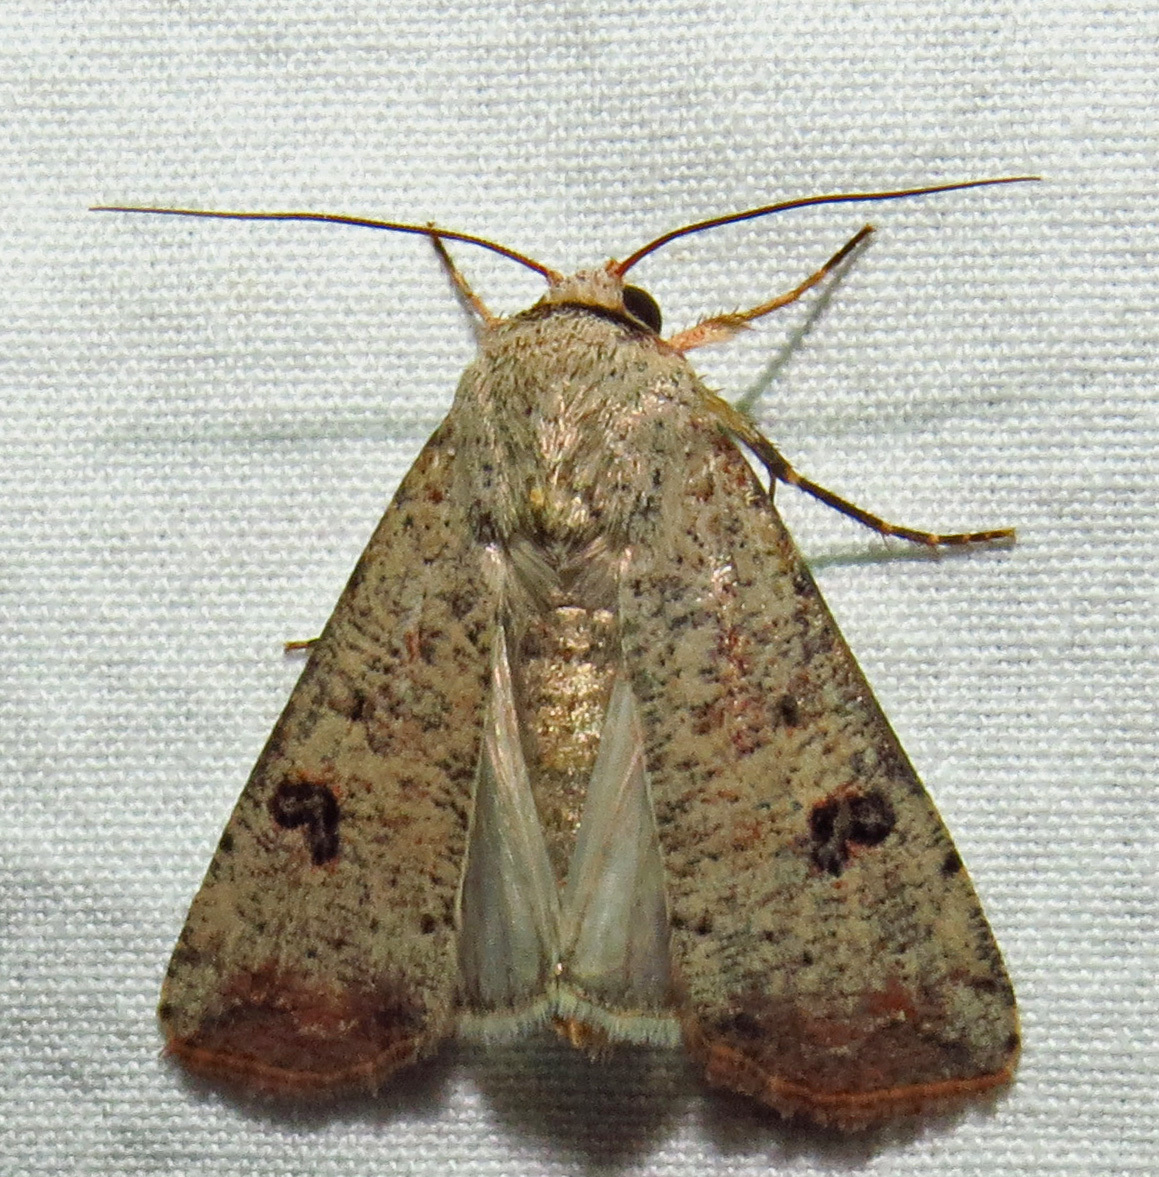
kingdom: Animalia
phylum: Arthropoda
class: Insecta
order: Lepidoptera
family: Noctuidae
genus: Anicla
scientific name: Anicla infecta
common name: Green cutworm
